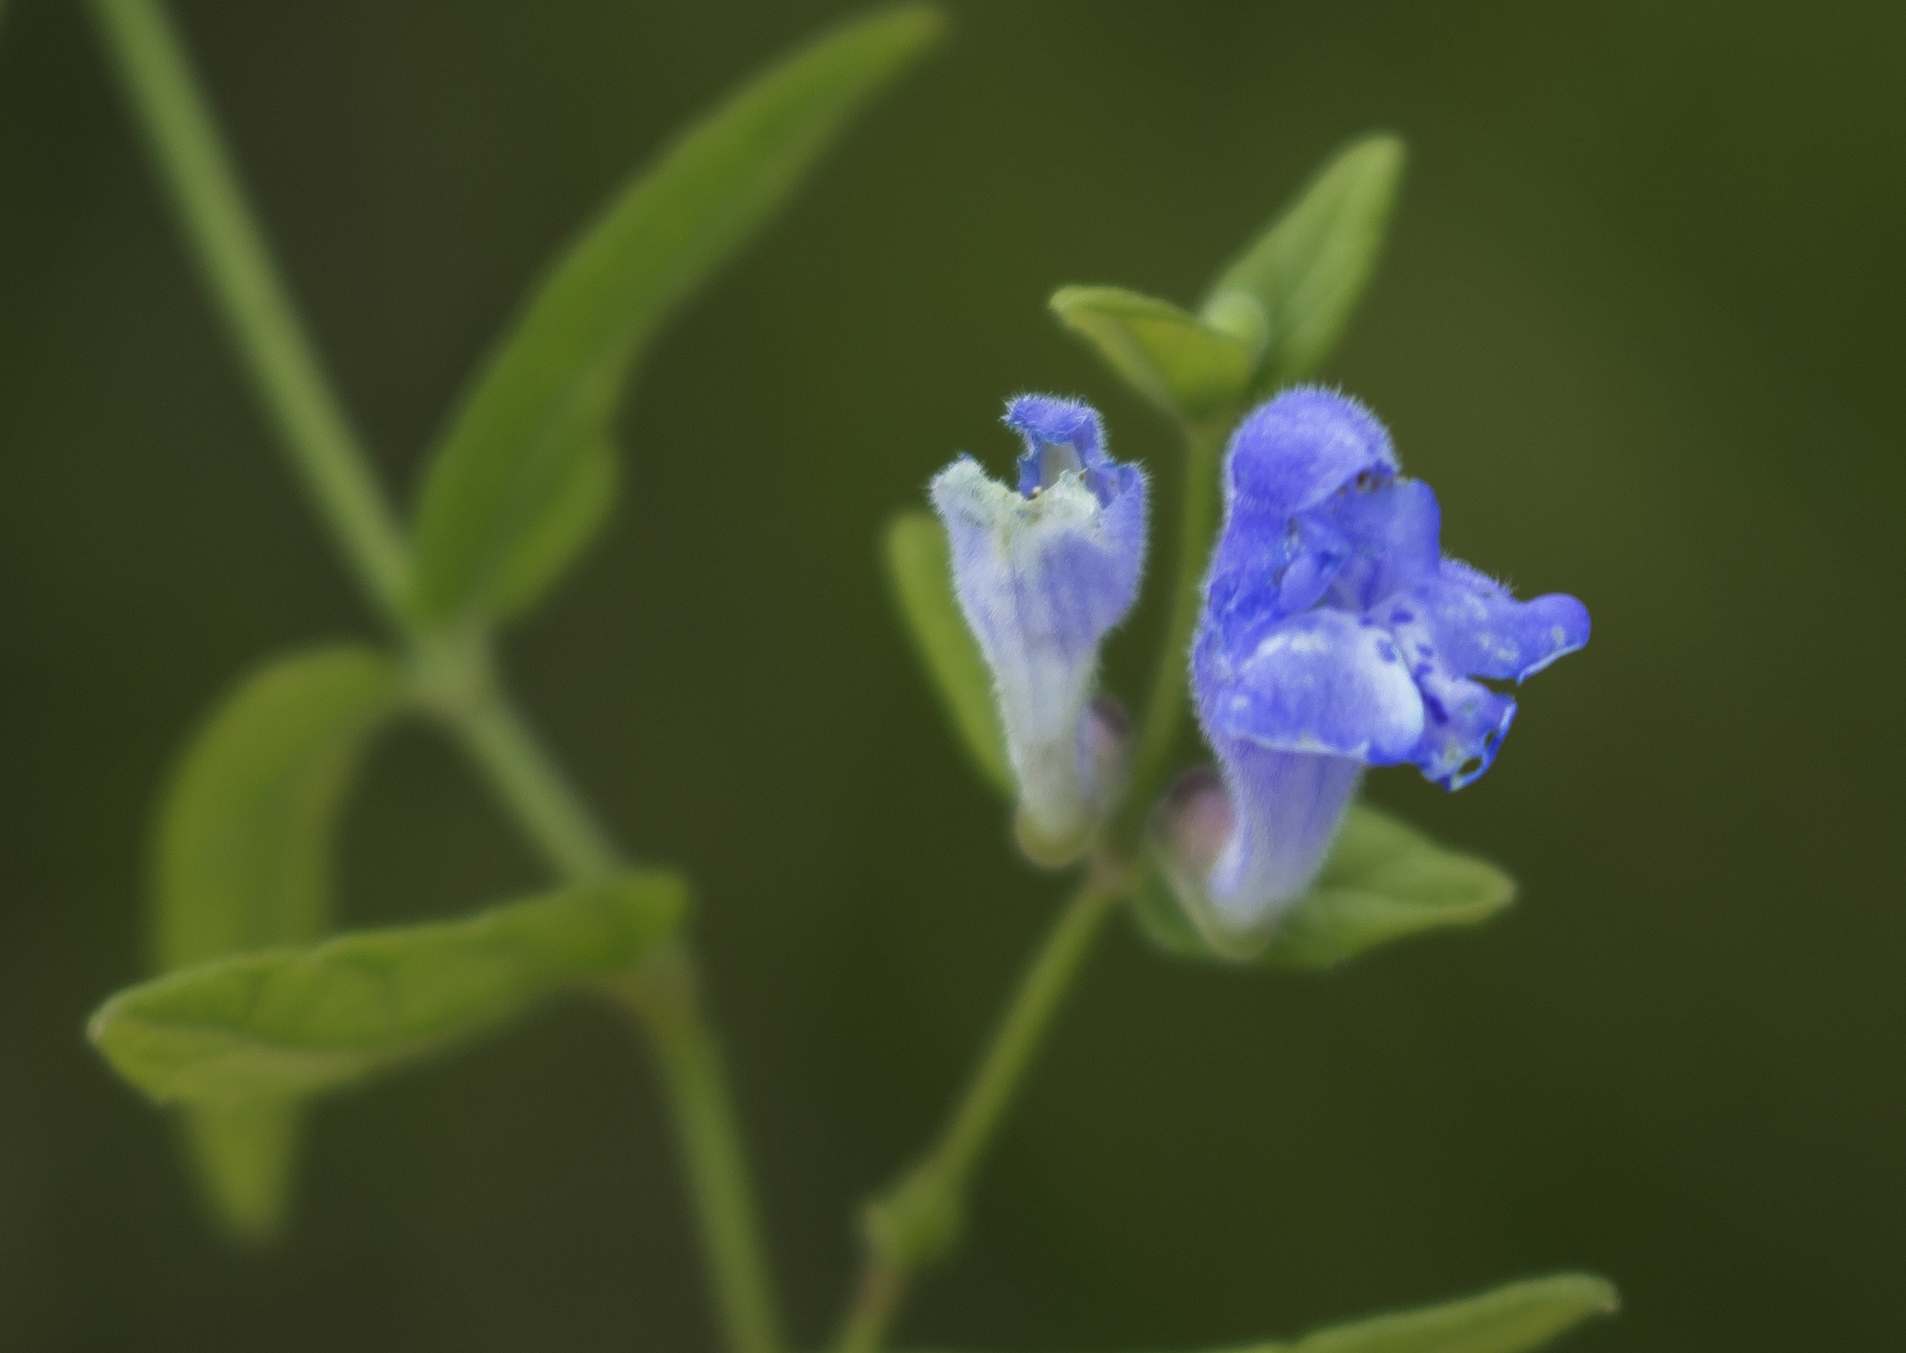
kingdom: Plantae
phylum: Tracheophyta
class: Magnoliopsida
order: Lamiales
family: Lamiaceae
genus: Scutellaria
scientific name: Scutellaria galericulata
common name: Skullcap
